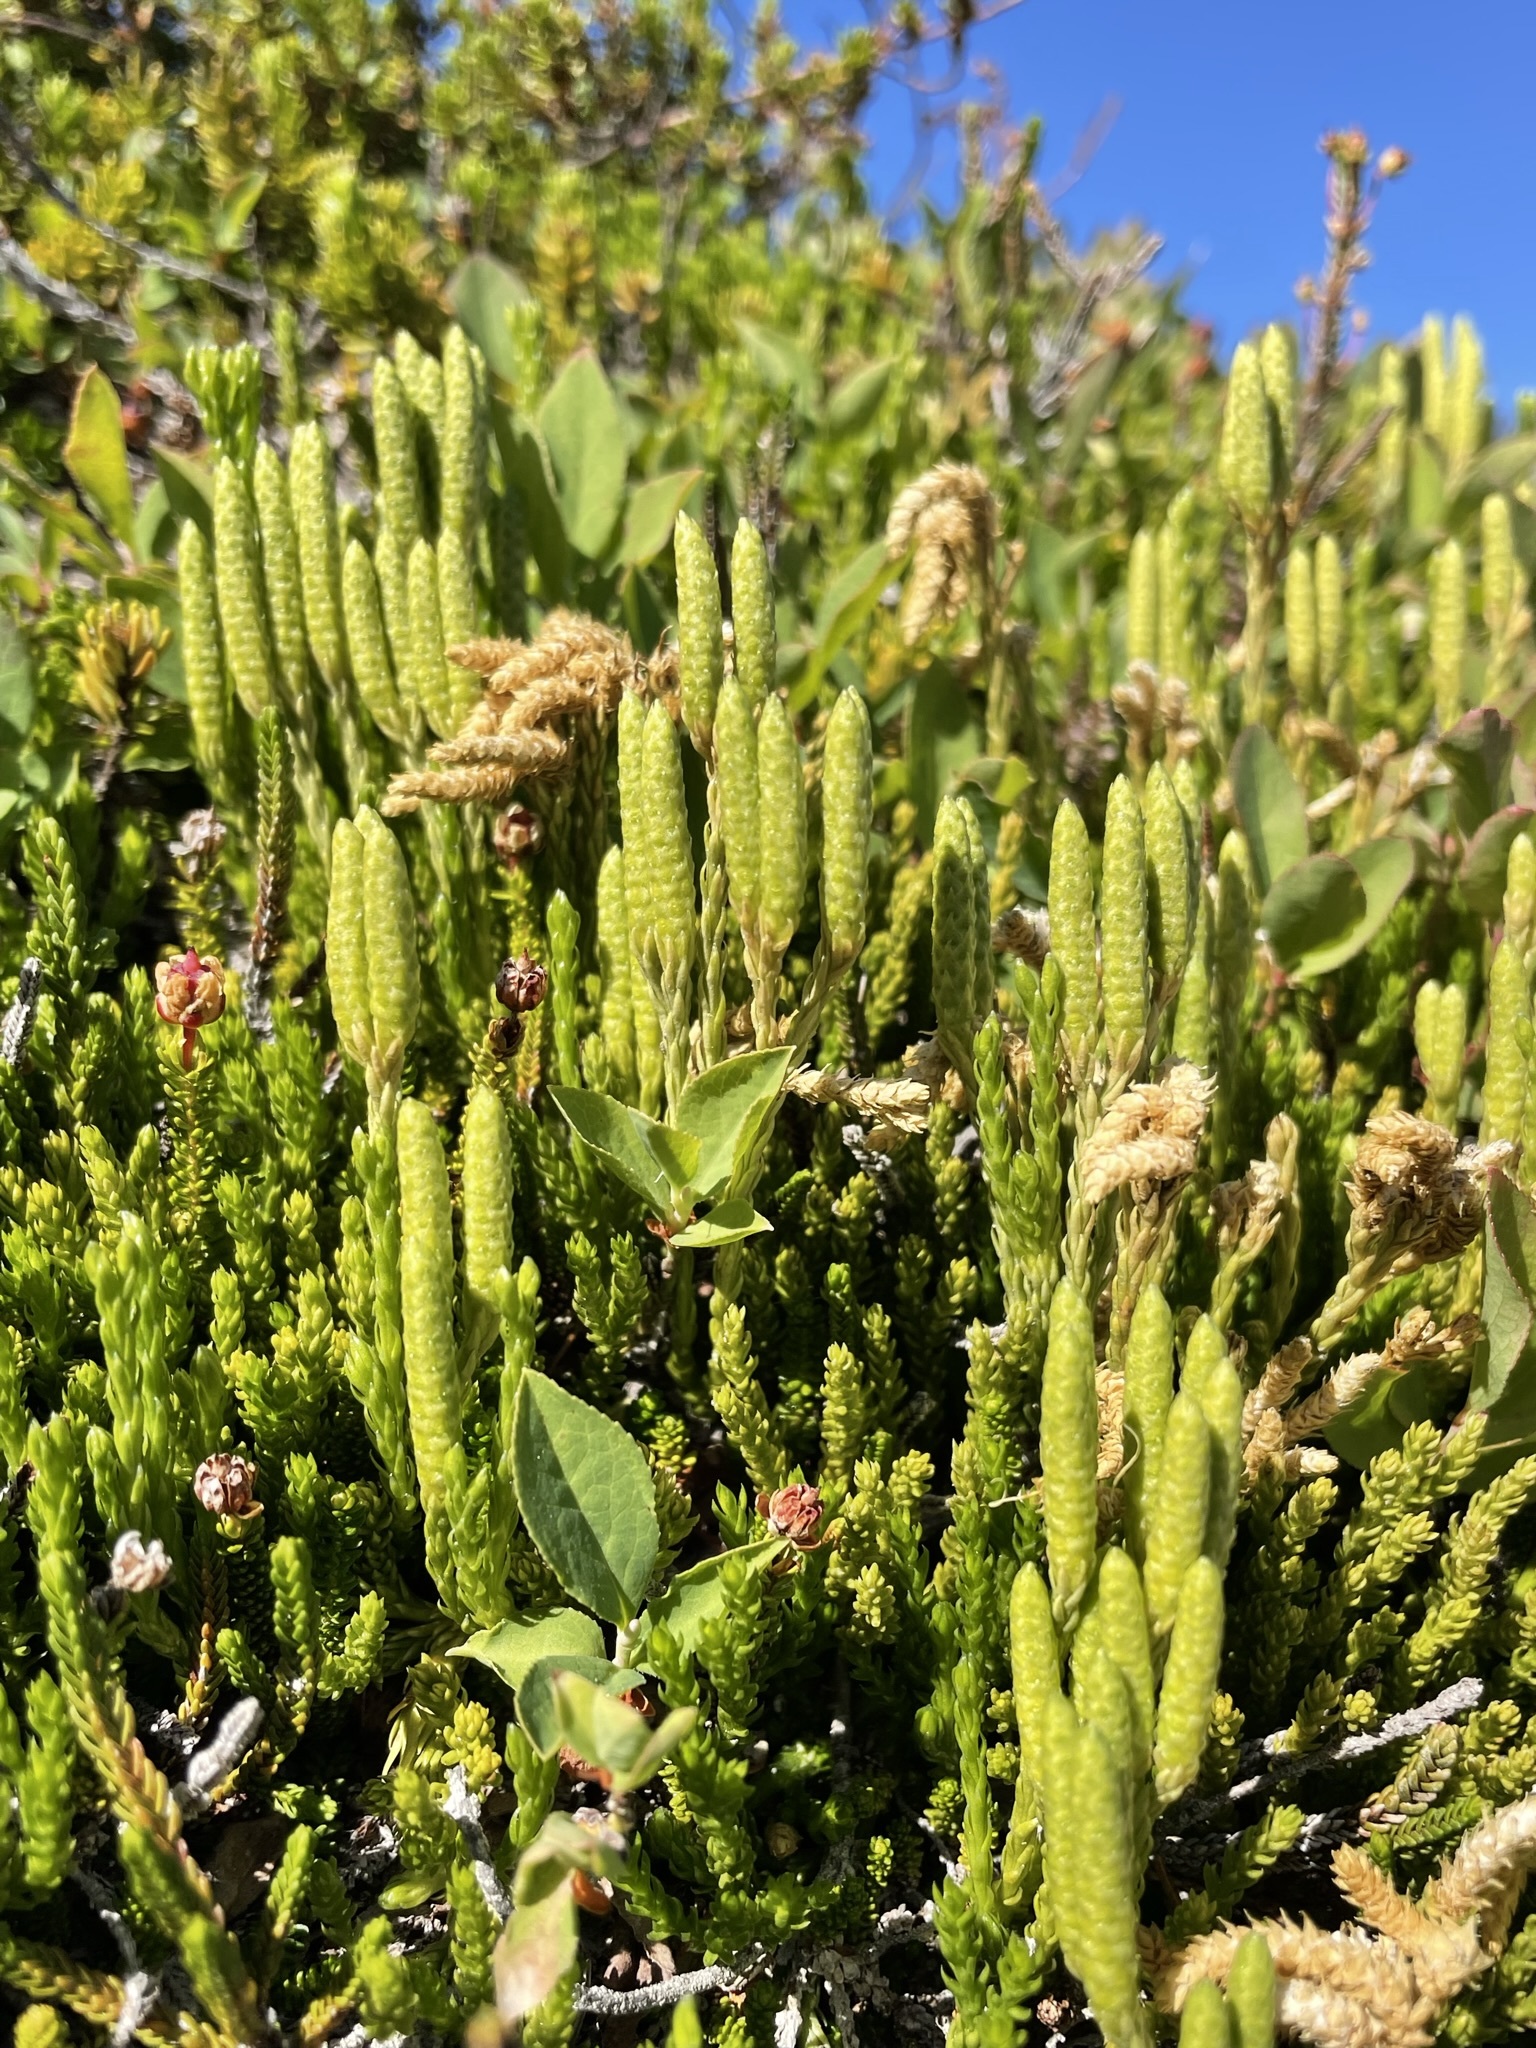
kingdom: Plantae
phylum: Tracheophyta
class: Lycopodiopsida
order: Lycopodiales
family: Lycopodiaceae
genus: Diphasiastrum
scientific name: Diphasiastrum sitchense
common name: Alaska clubmoss
